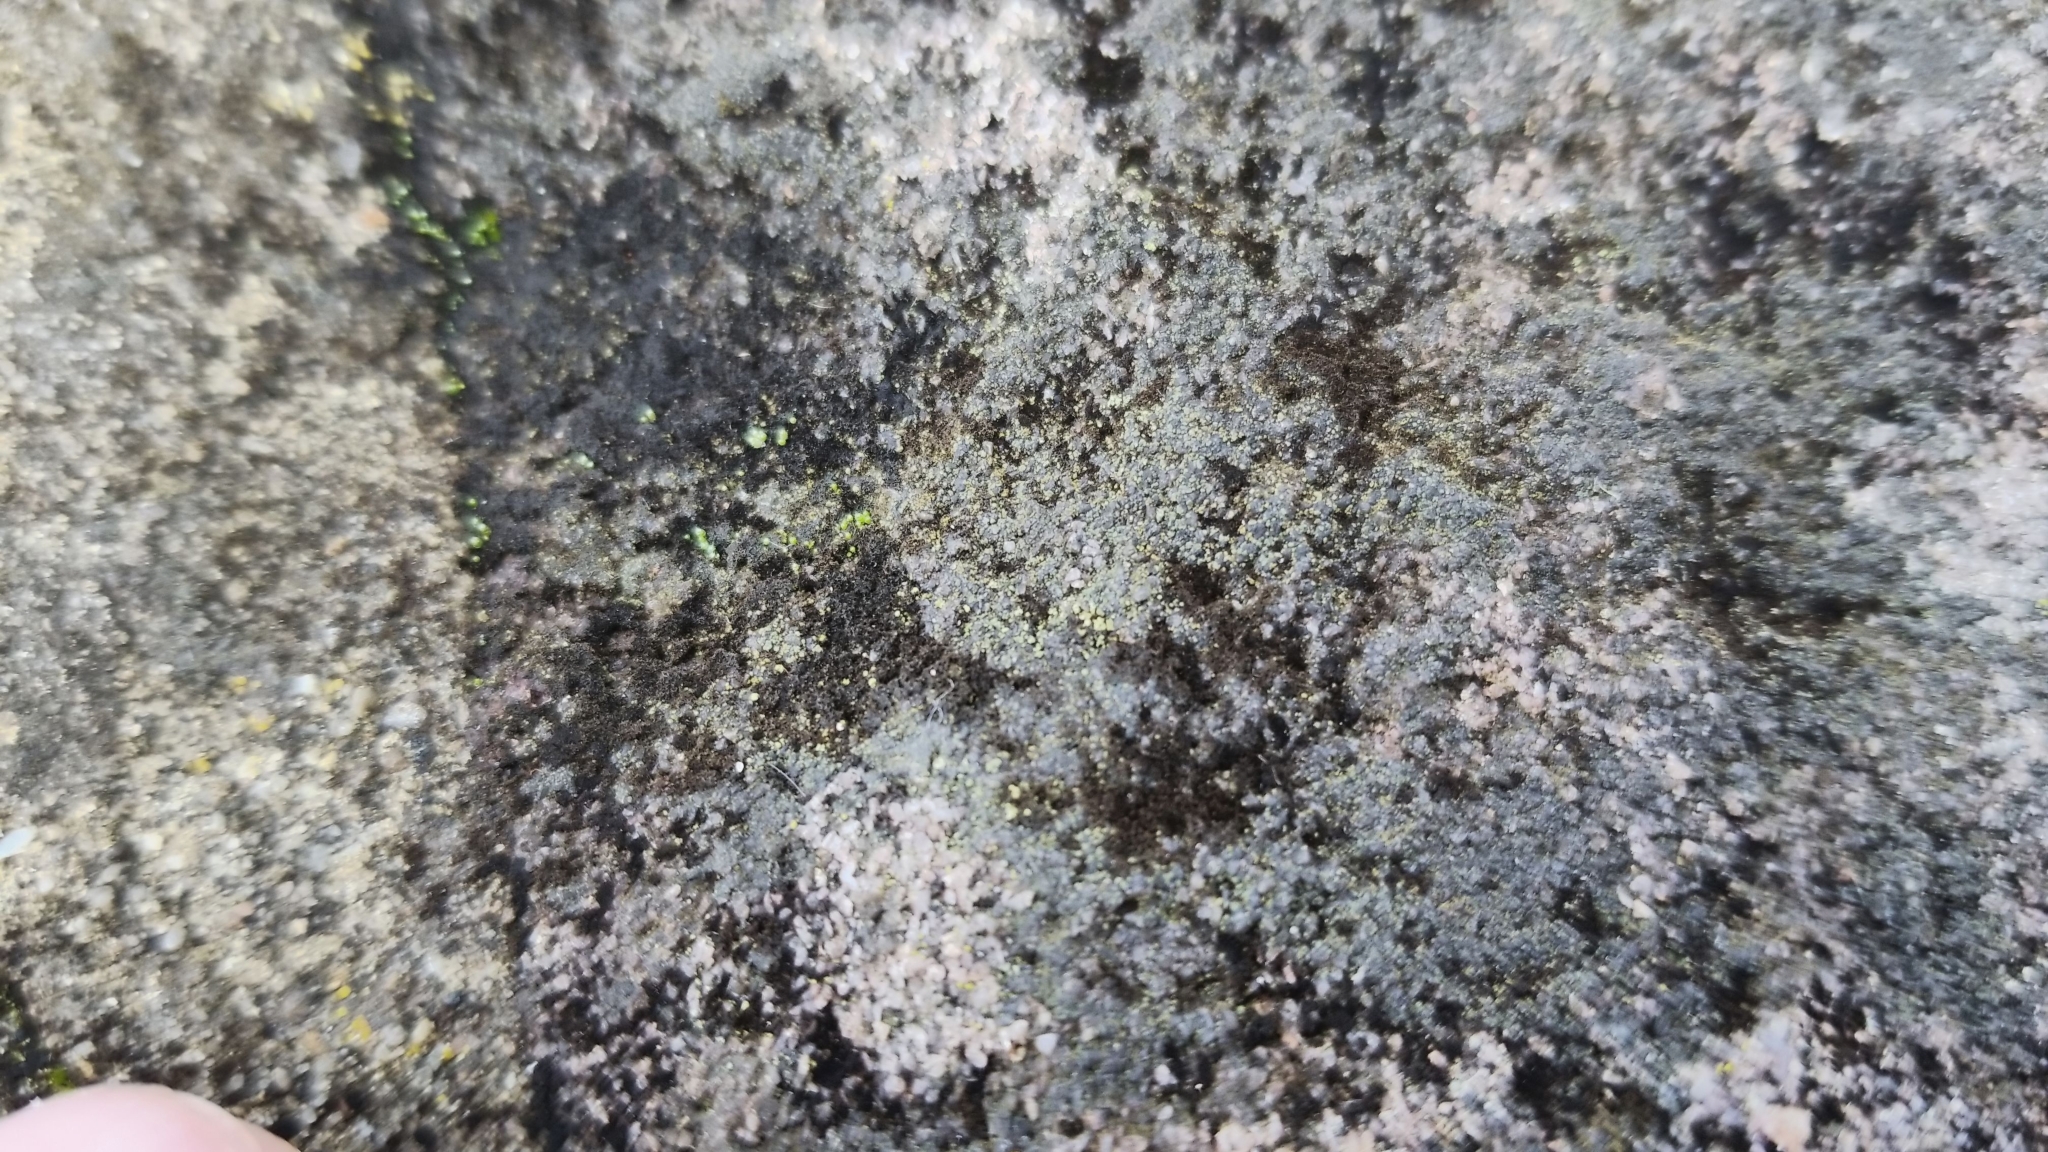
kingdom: Fungi
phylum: Ascomycota
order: Thelocarpales
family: Thelocarpaceae
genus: Thelocarpon
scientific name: Thelocarpon laureri
